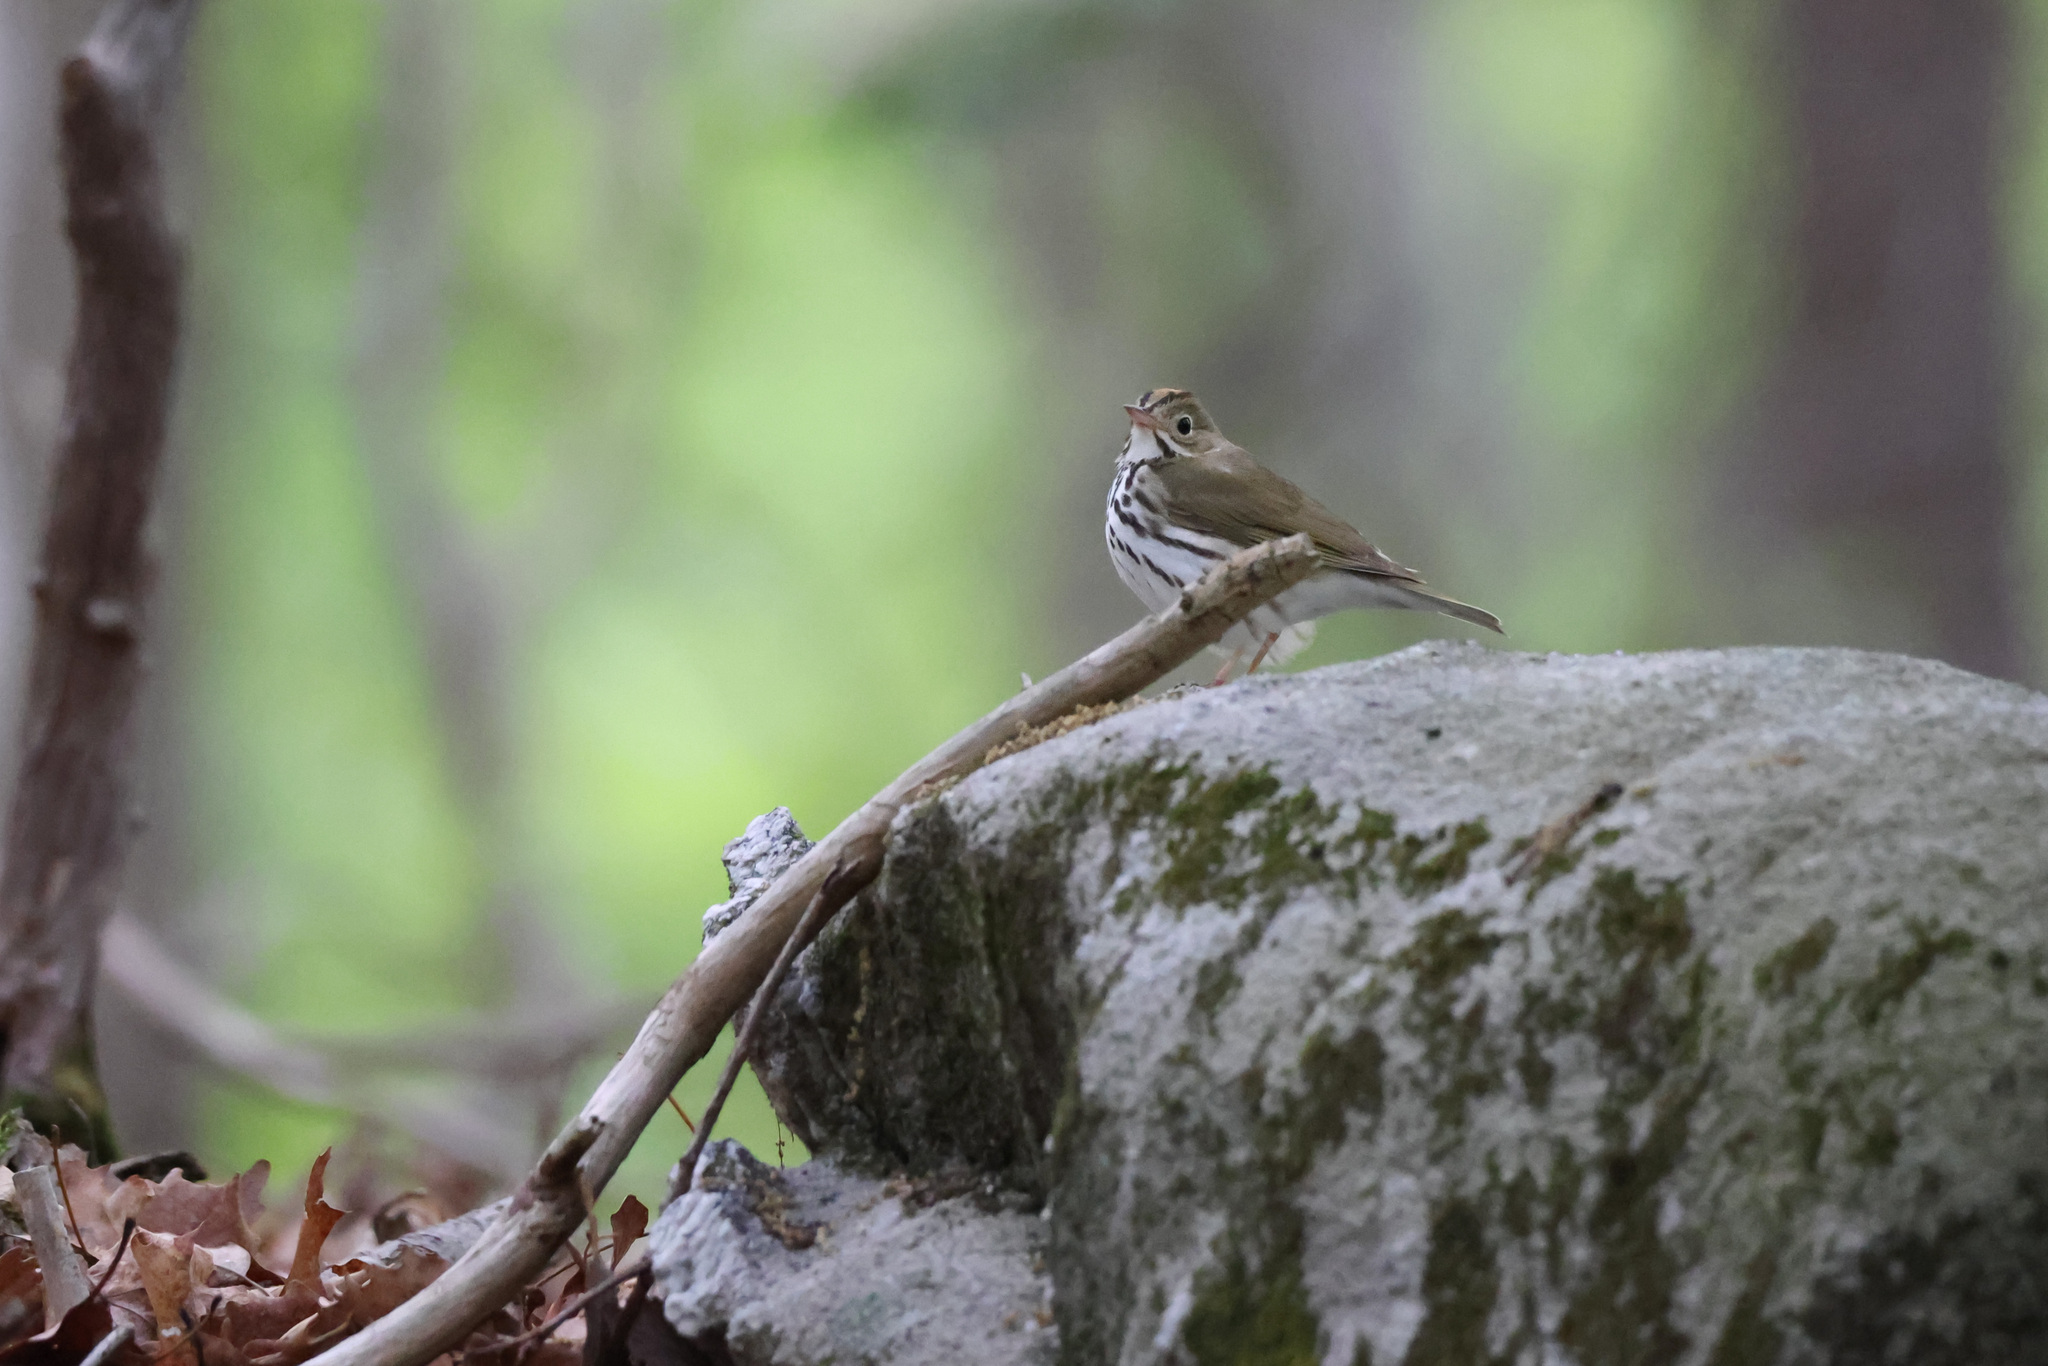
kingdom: Animalia
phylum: Chordata
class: Aves
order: Passeriformes
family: Parulidae
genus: Seiurus
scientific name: Seiurus aurocapilla
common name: Ovenbird
